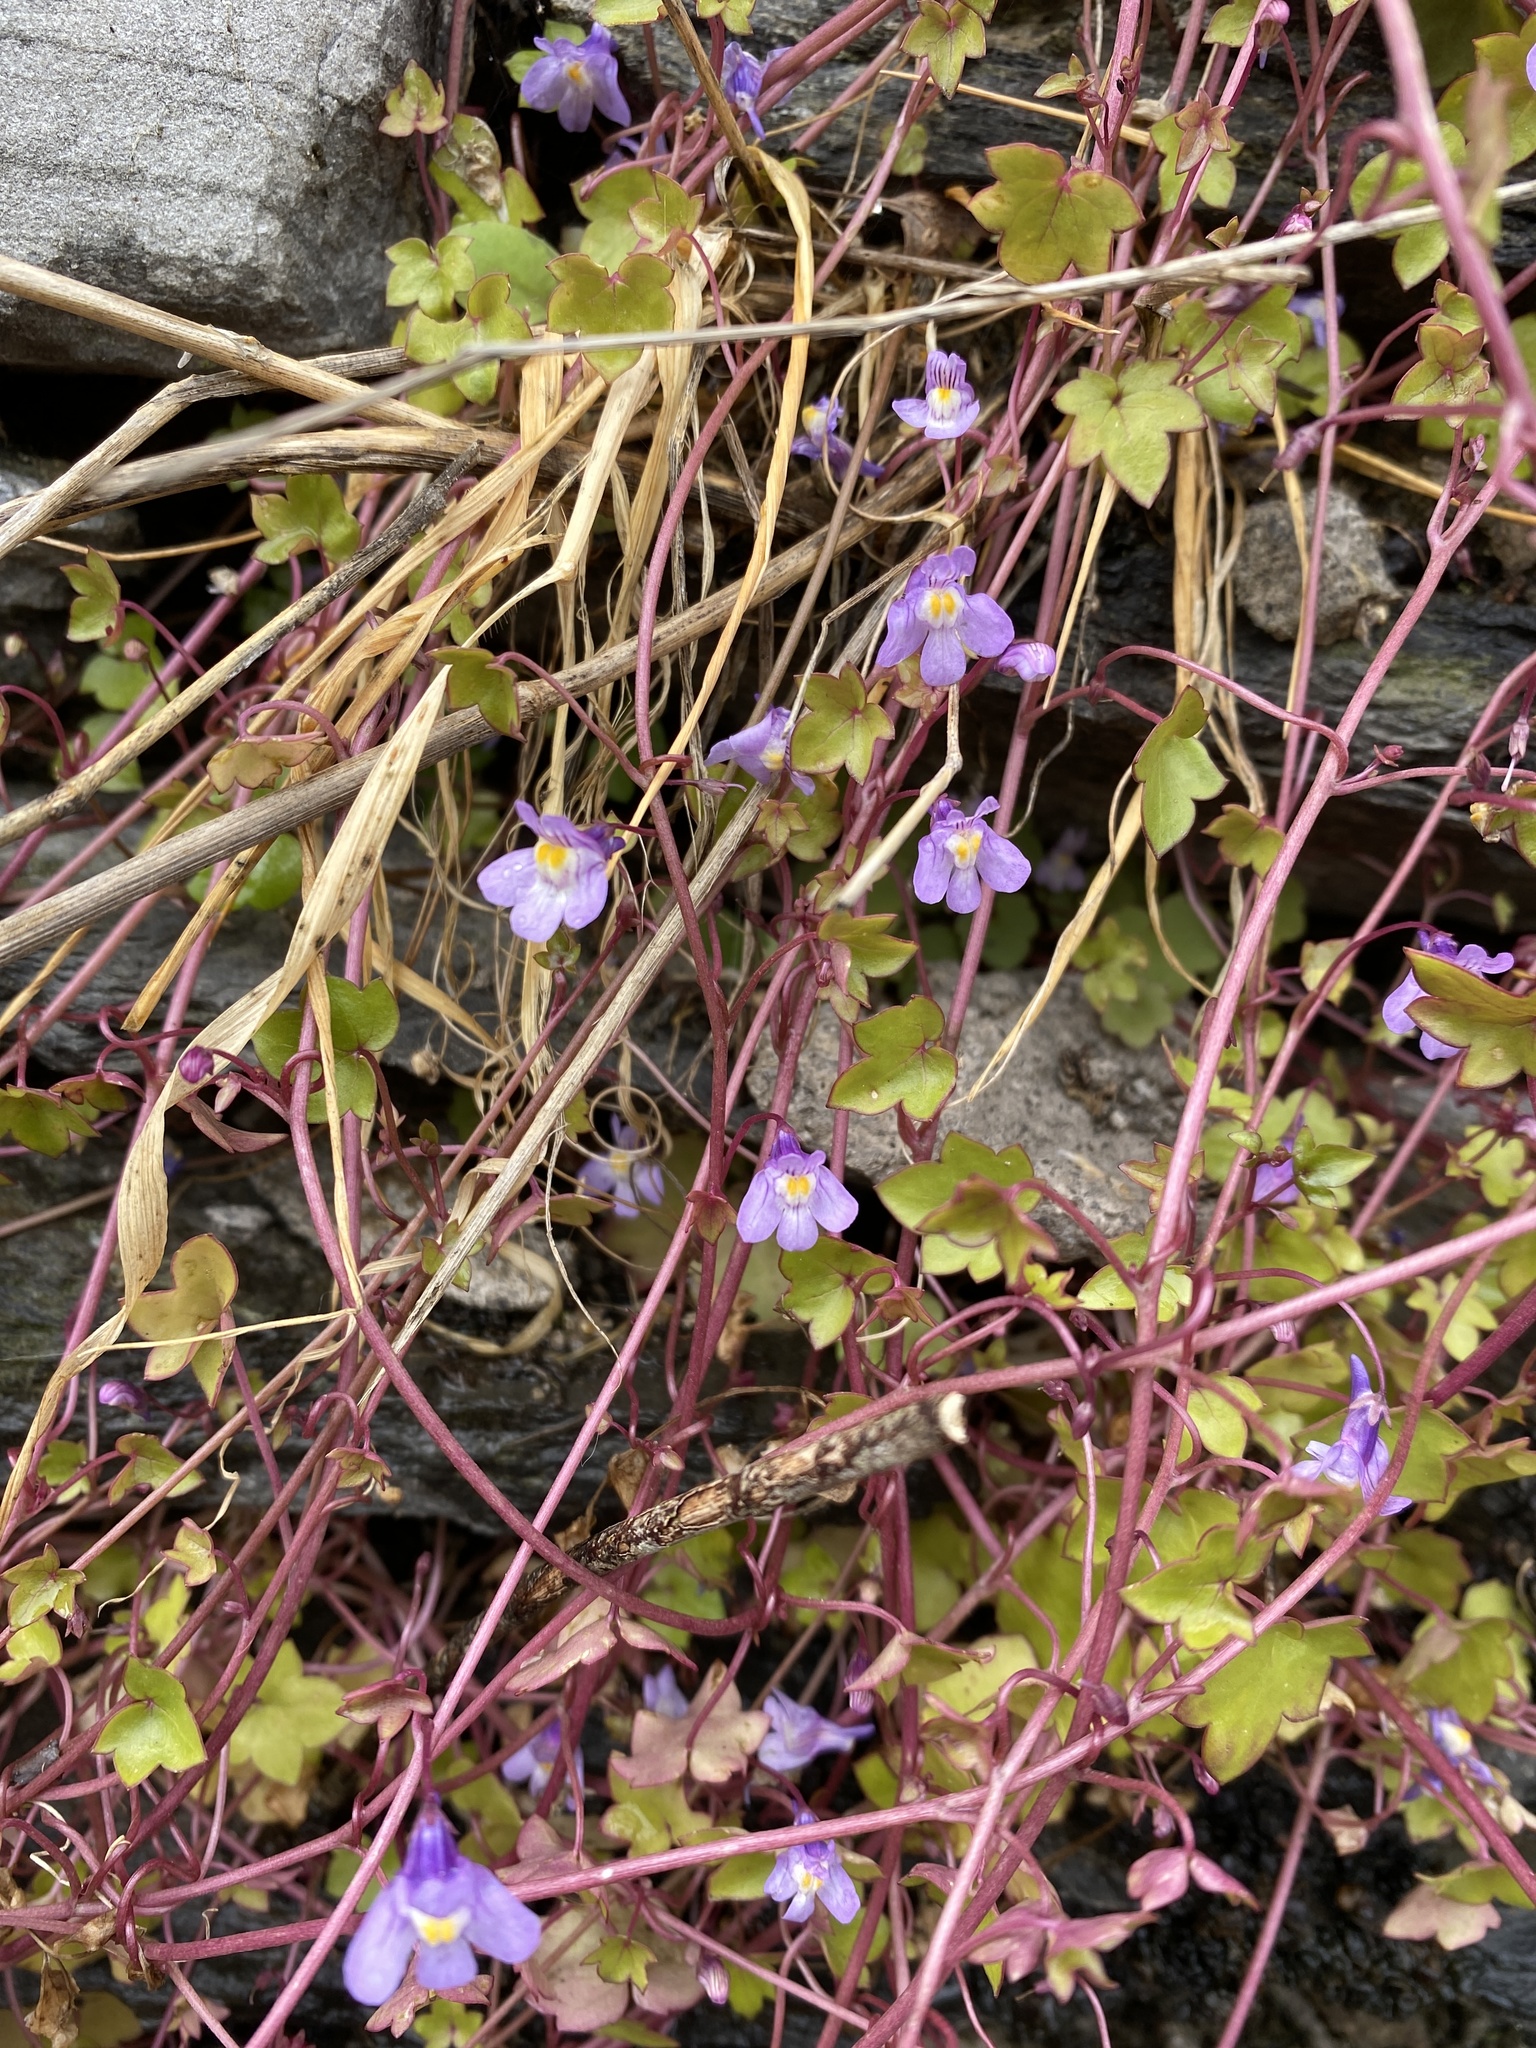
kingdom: Plantae
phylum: Tracheophyta
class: Magnoliopsida
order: Lamiales
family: Plantaginaceae
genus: Cymbalaria
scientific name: Cymbalaria muralis
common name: Ivy-leaved toadflax
